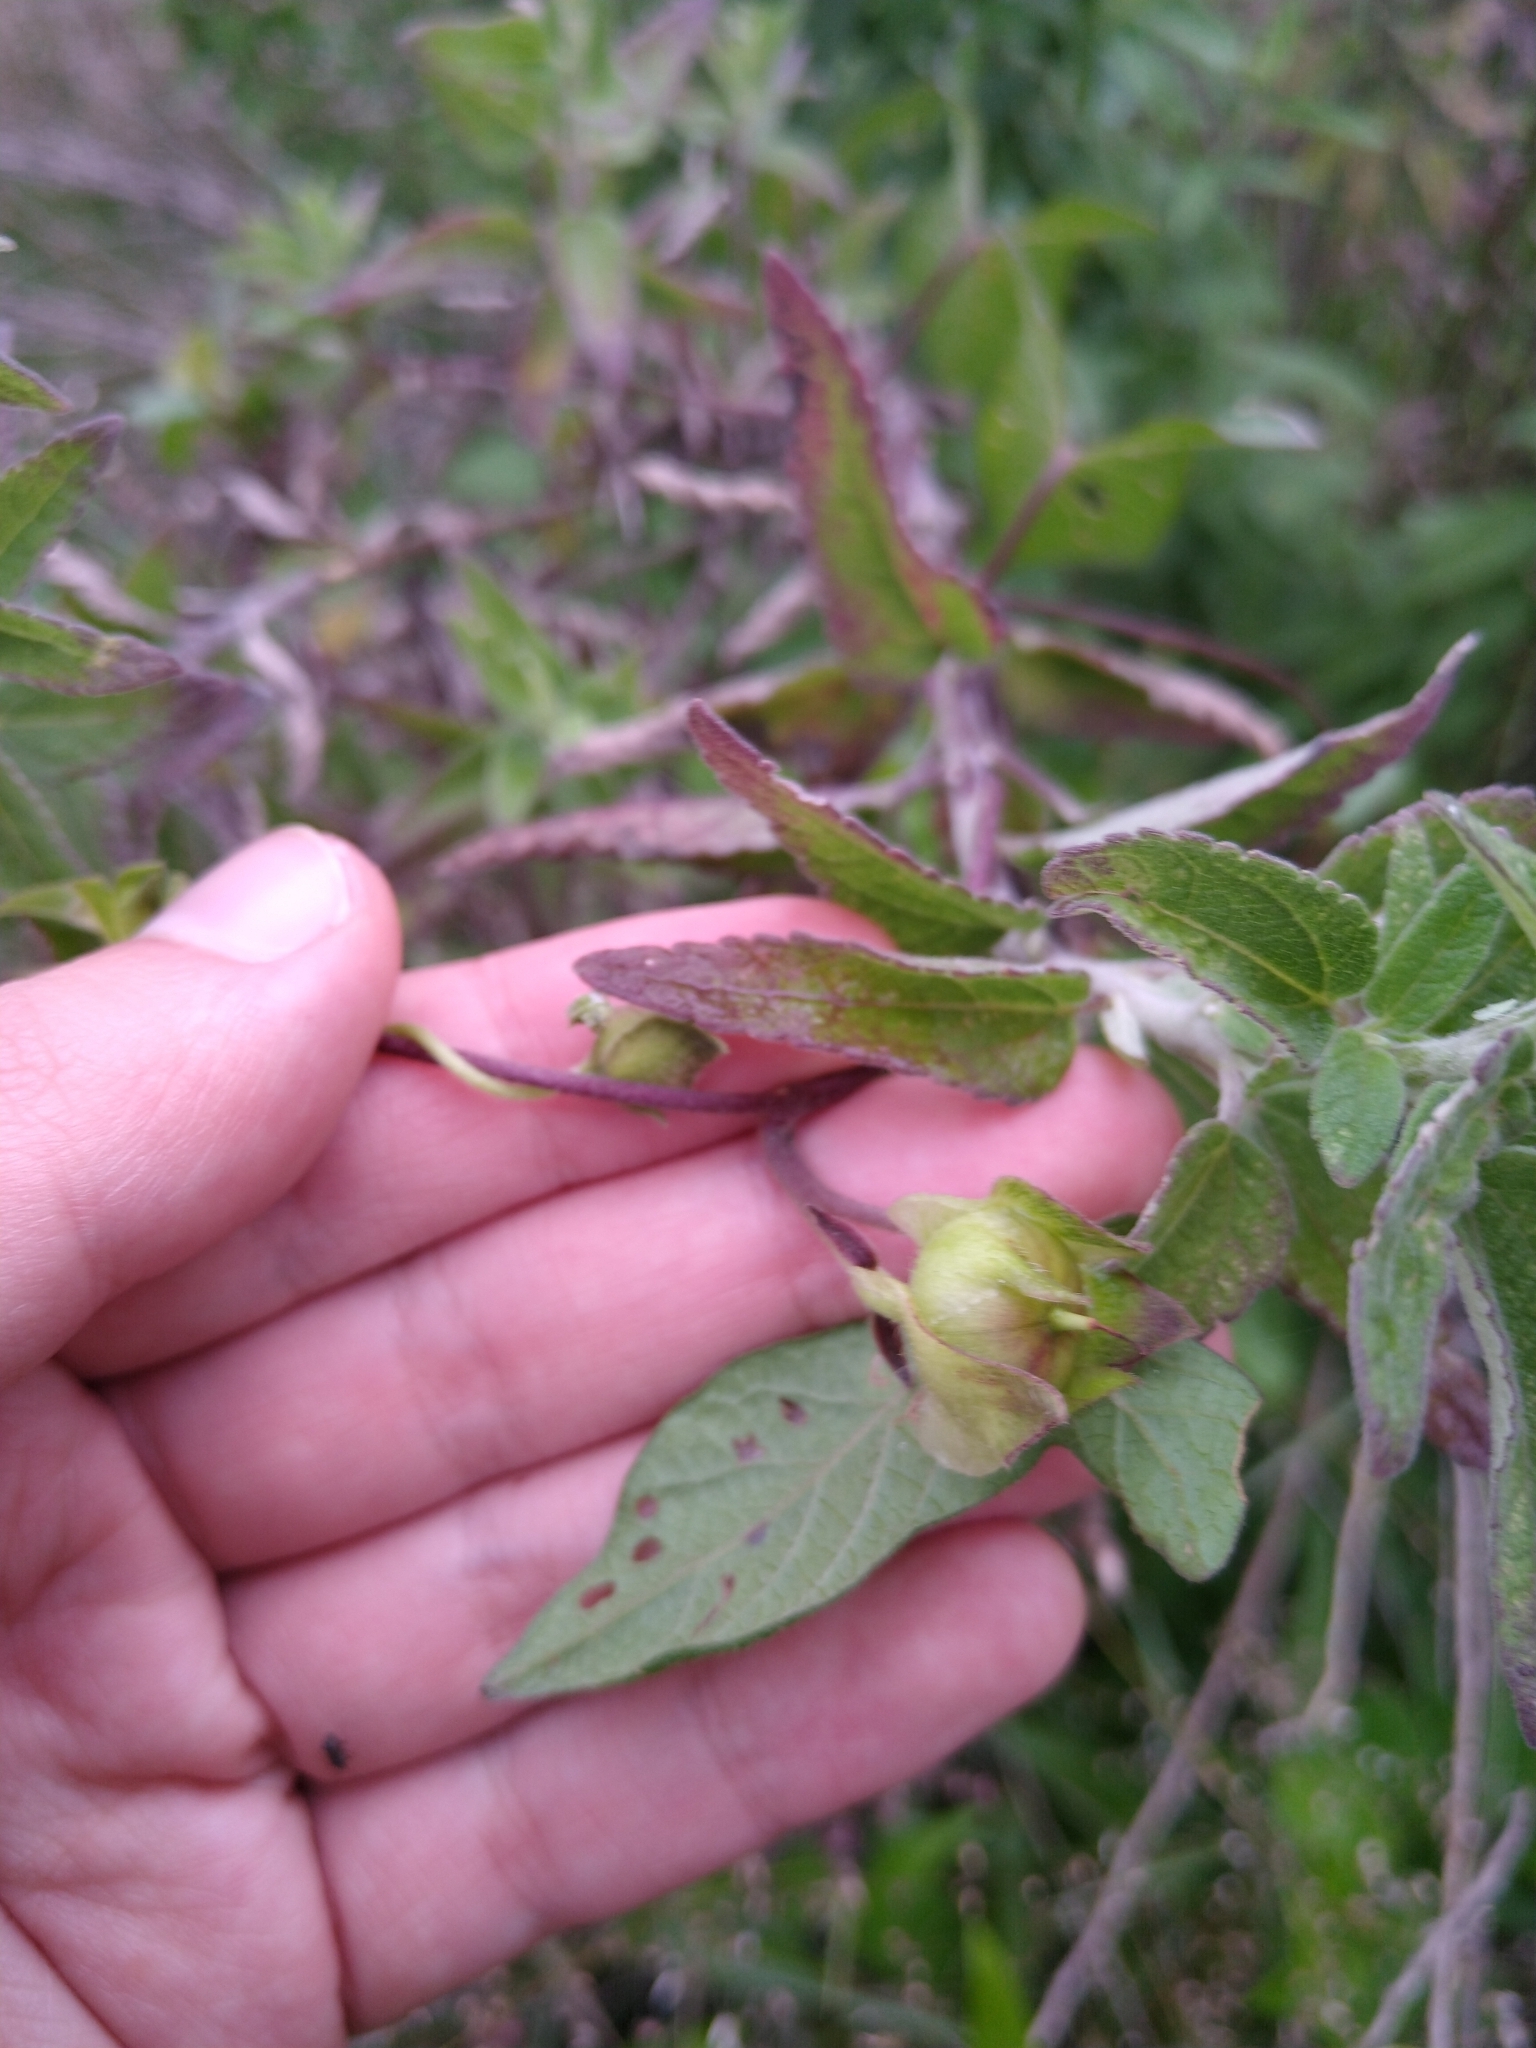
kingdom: Plantae
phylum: Tracheophyta
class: Magnoliopsida
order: Solanales
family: Convolvulaceae
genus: Ipomoea
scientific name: Ipomoea decasperma
